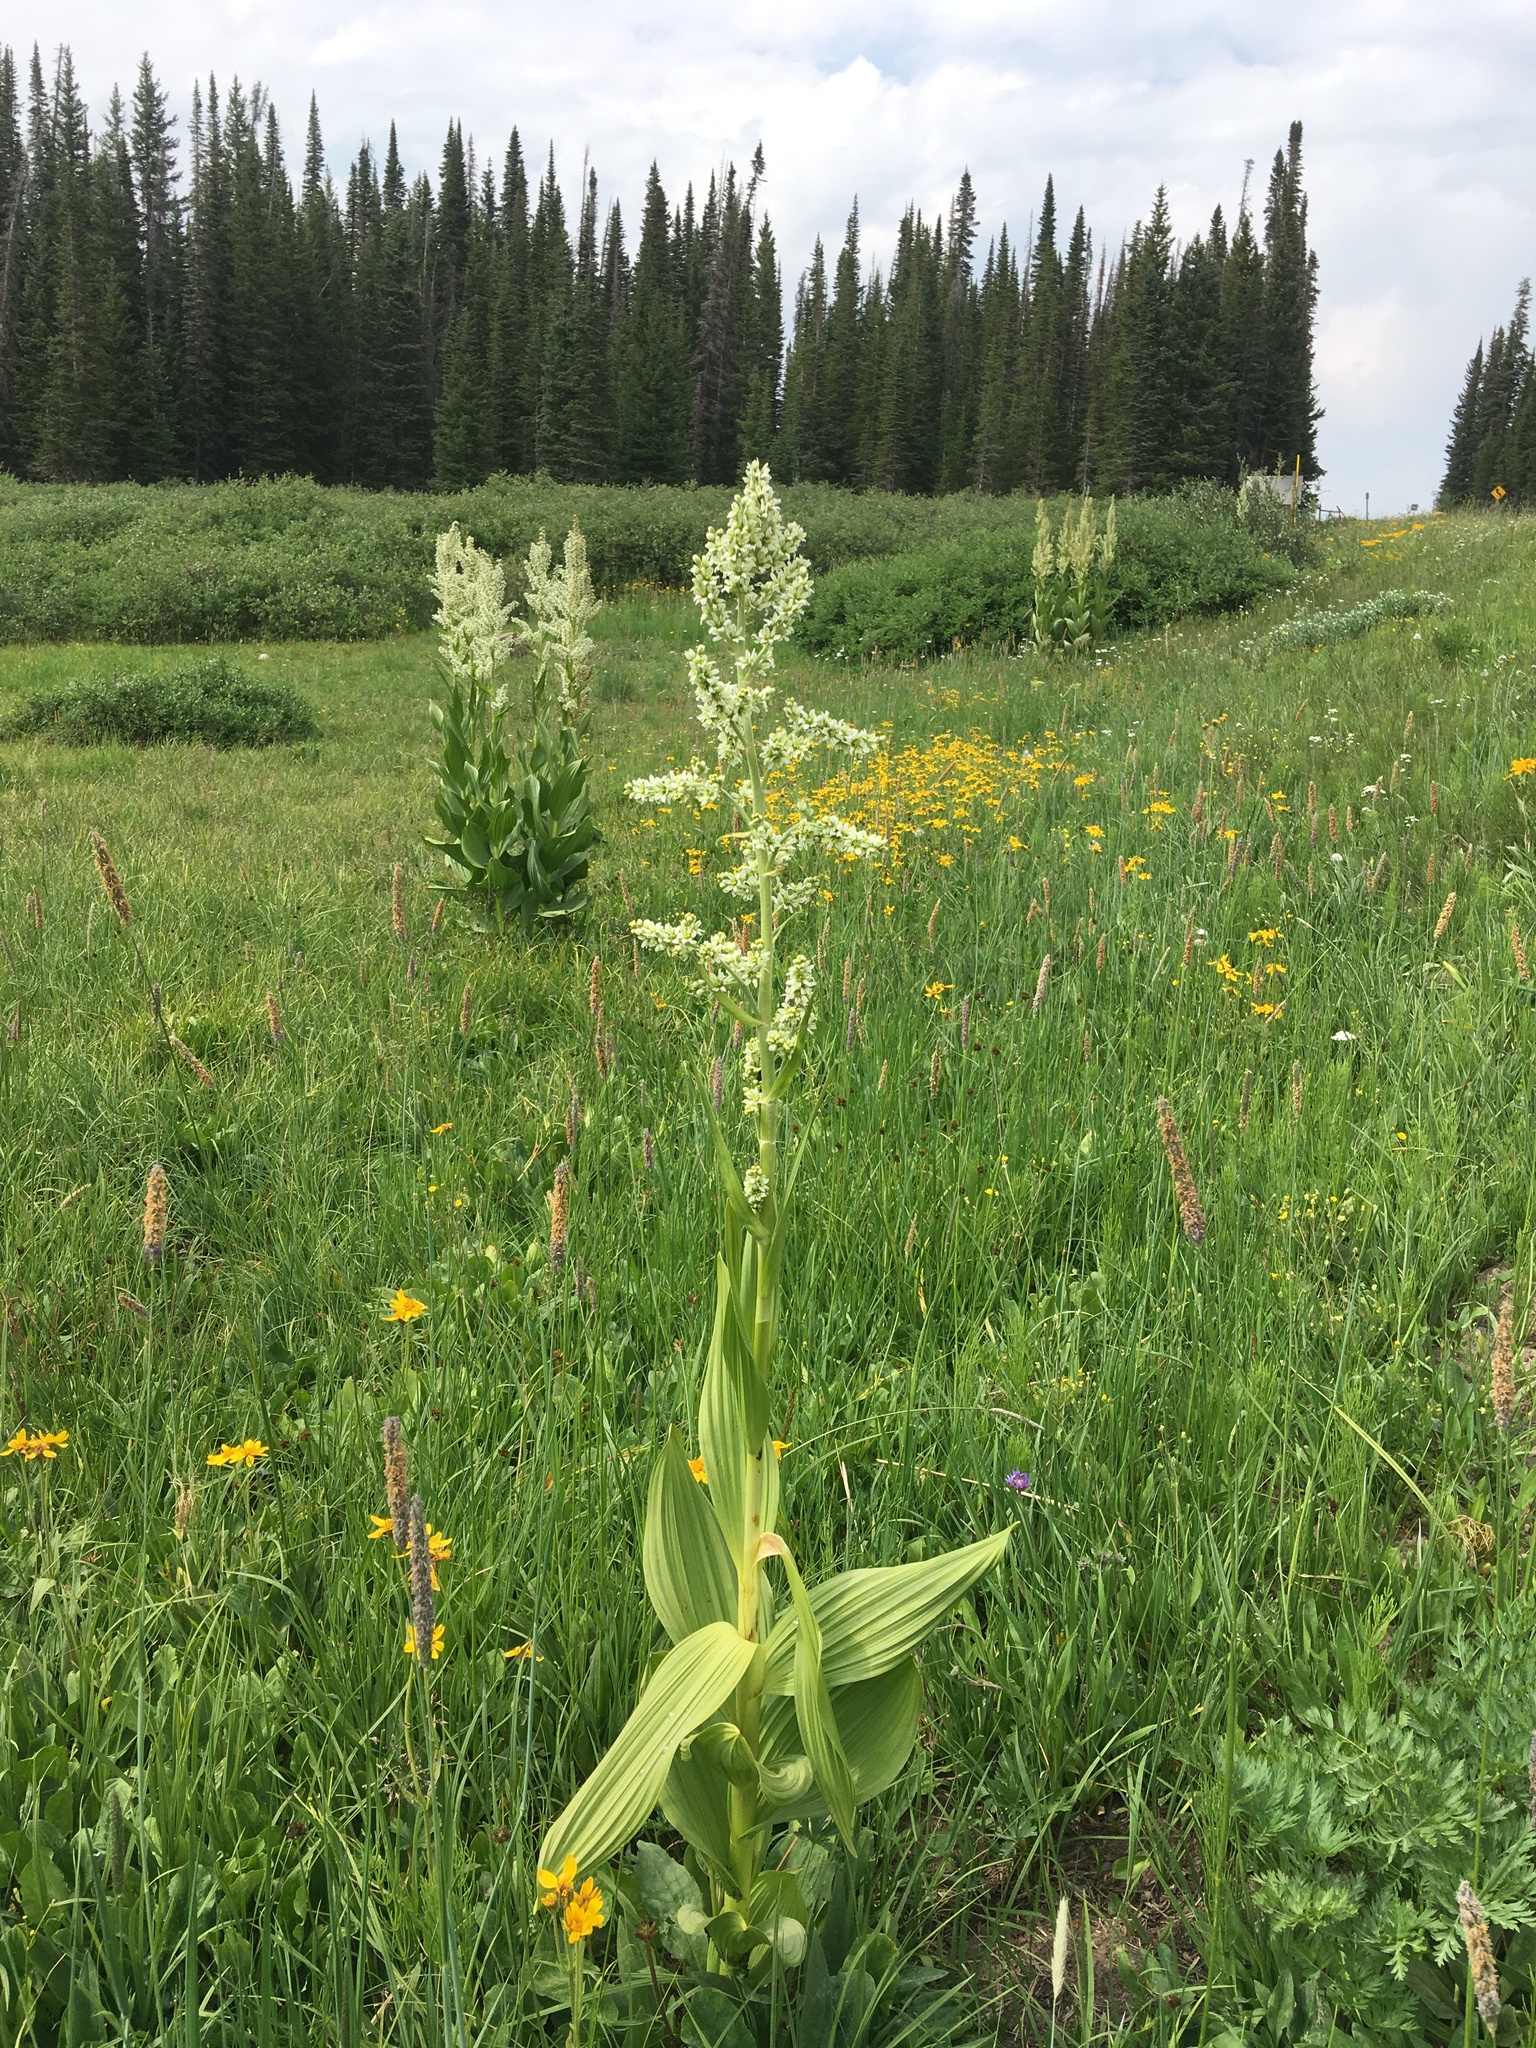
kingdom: Plantae
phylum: Tracheophyta
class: Liliopsida
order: Liliales
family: Melanthiaceae
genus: Veratrum
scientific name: Veratrum californicum
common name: California veratrum
